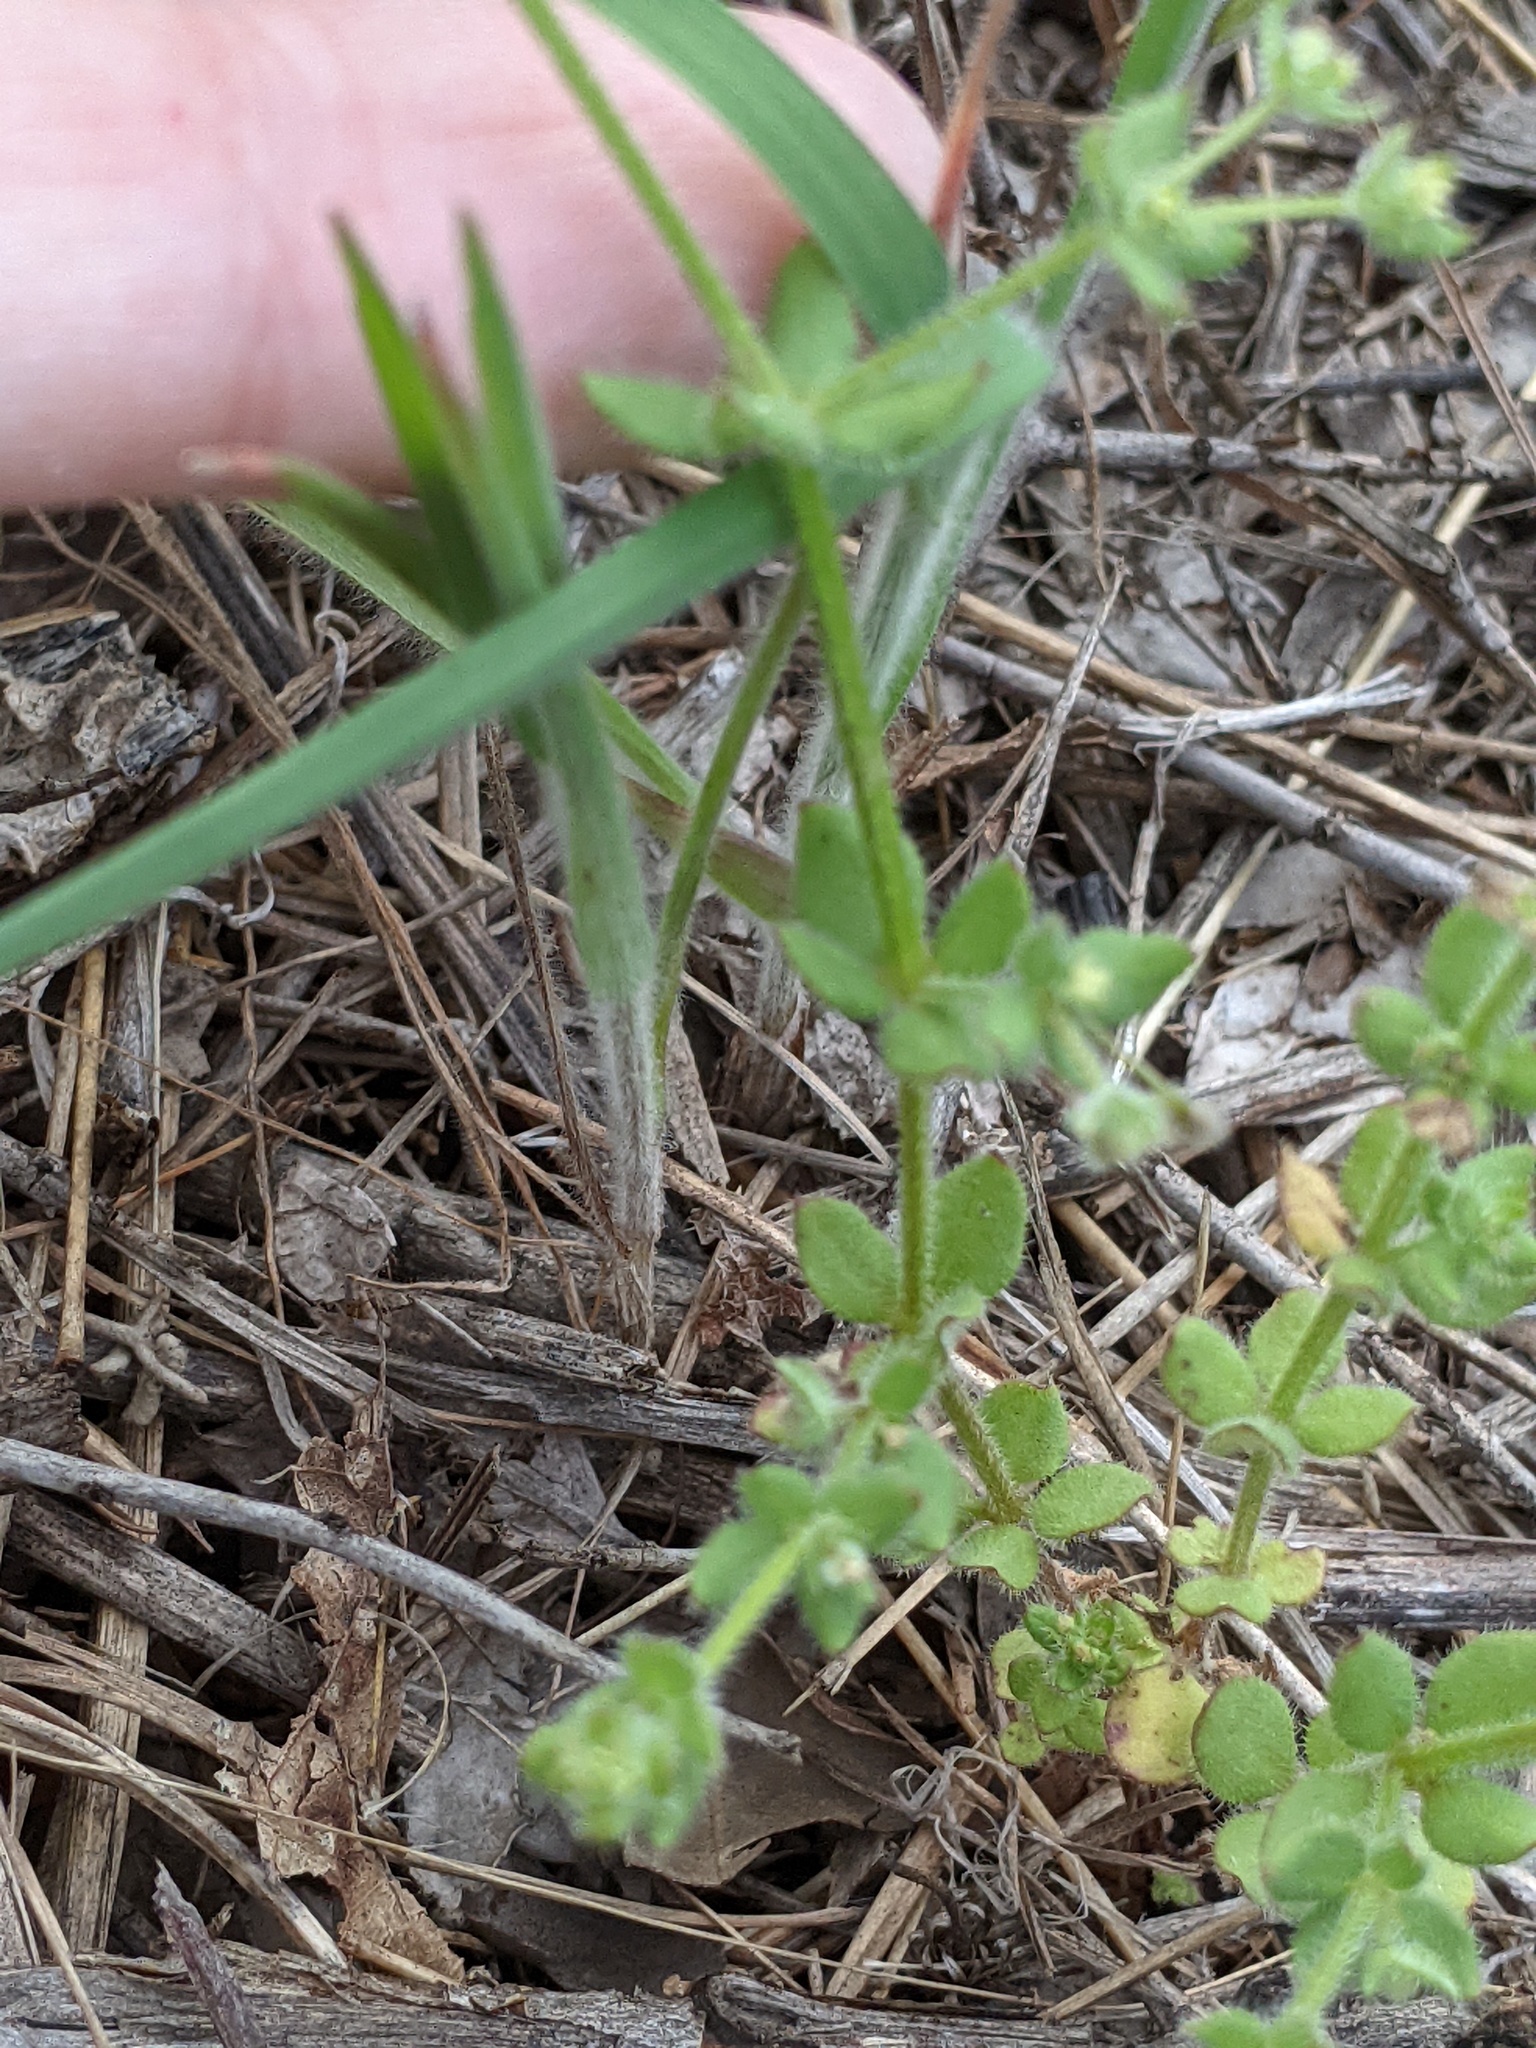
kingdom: Plantae
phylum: Tracheophyta
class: Magnoliopsida
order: Gentianales
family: Rubiaceae
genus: Galium
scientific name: Galium texense
